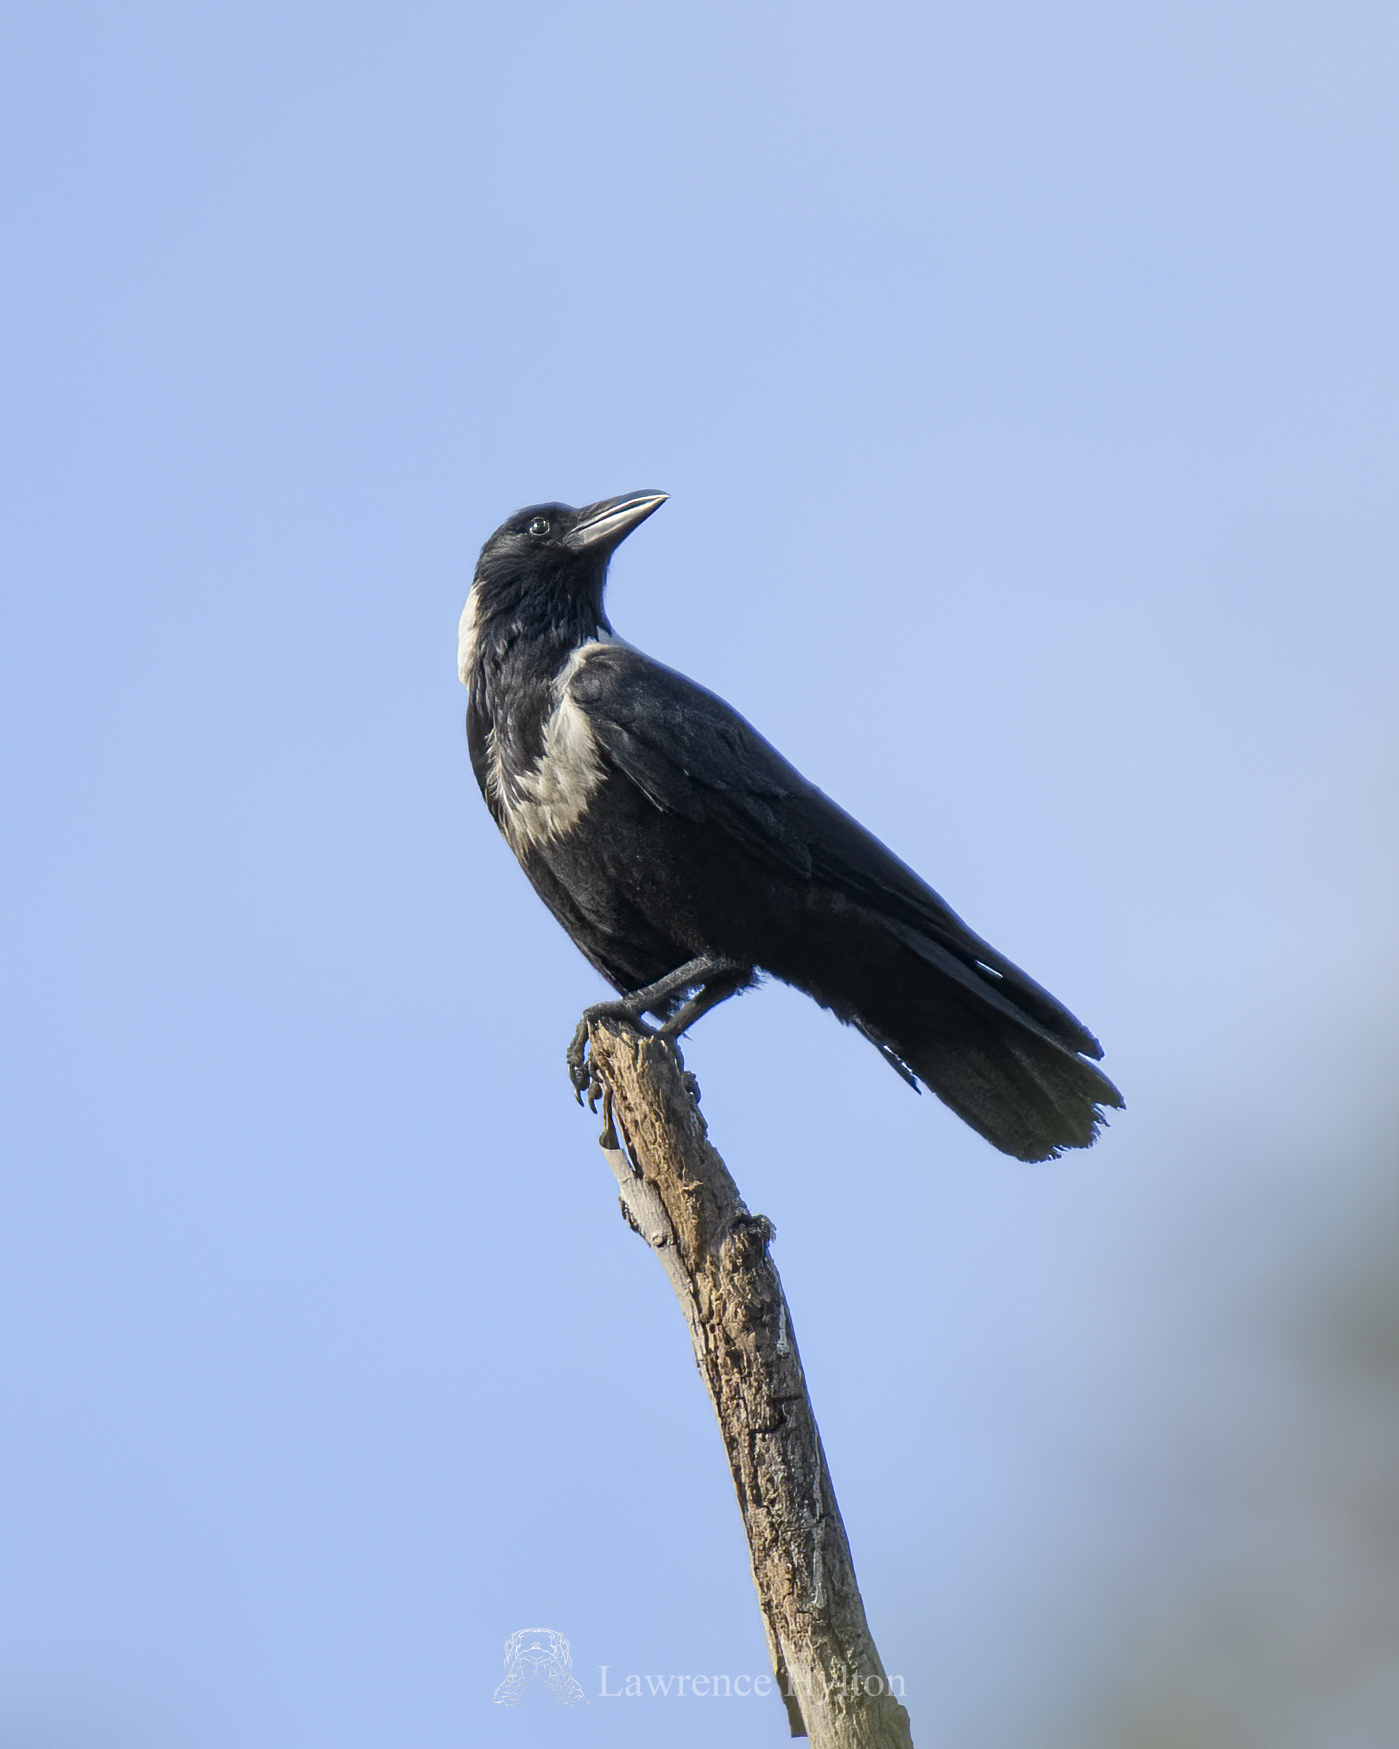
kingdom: Animalia
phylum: Chordata
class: Aves
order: Passeriformes
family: Corvidae
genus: Corvus
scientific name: Corvus pectoralis
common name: Collared crow
